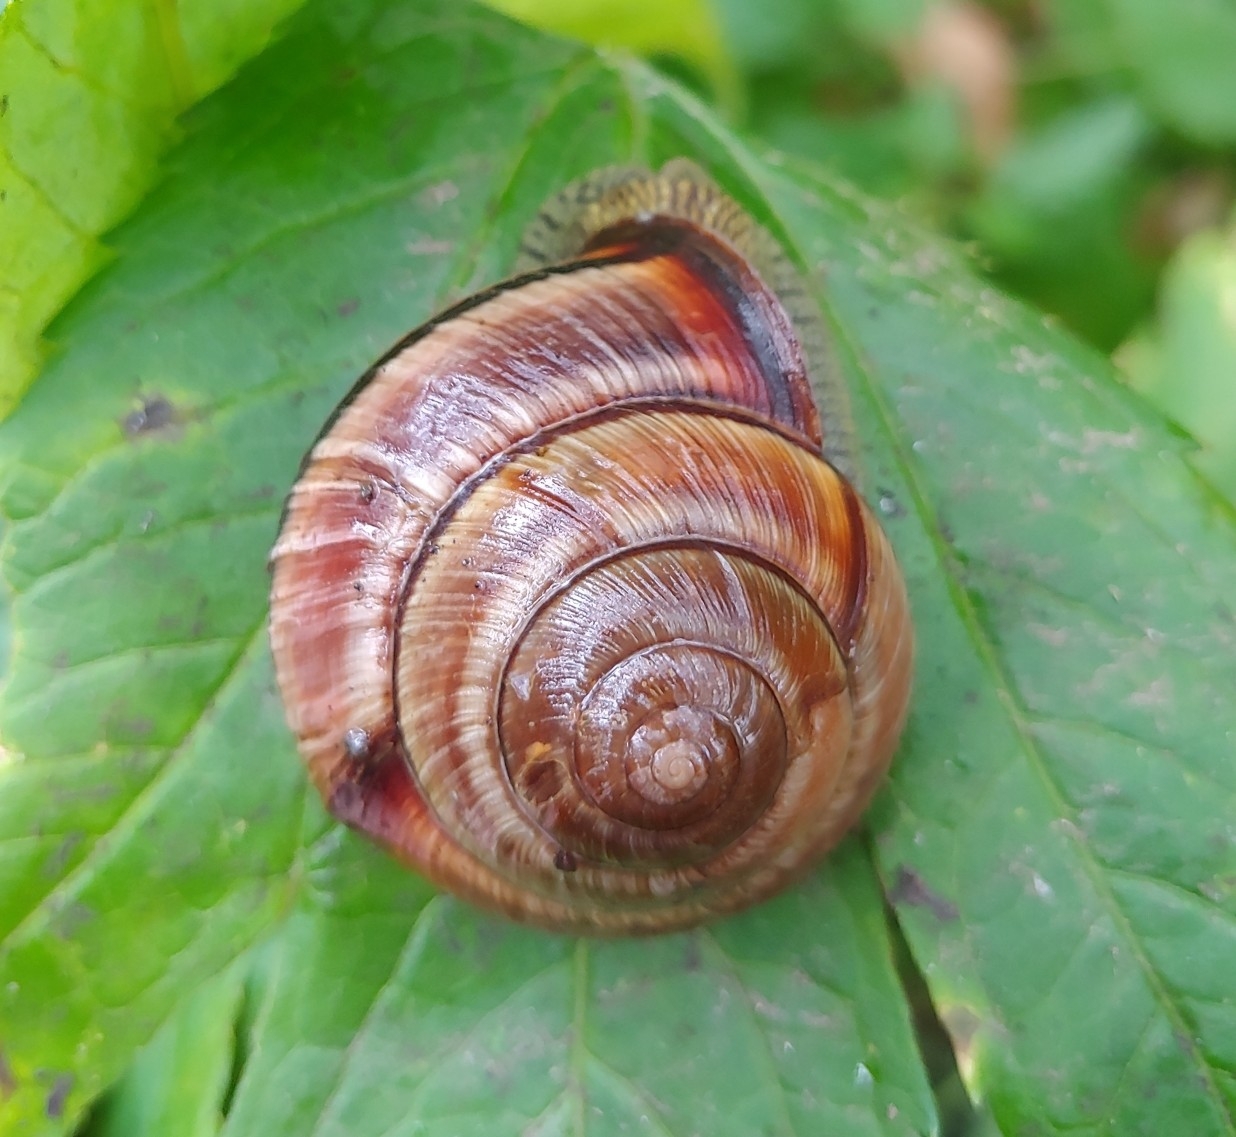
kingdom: Animalia
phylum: Mollusca
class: Gastropoda
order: Stylommatophora
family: Camaenidae
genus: Karaftohelix
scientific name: Karaftohelix bocageana
